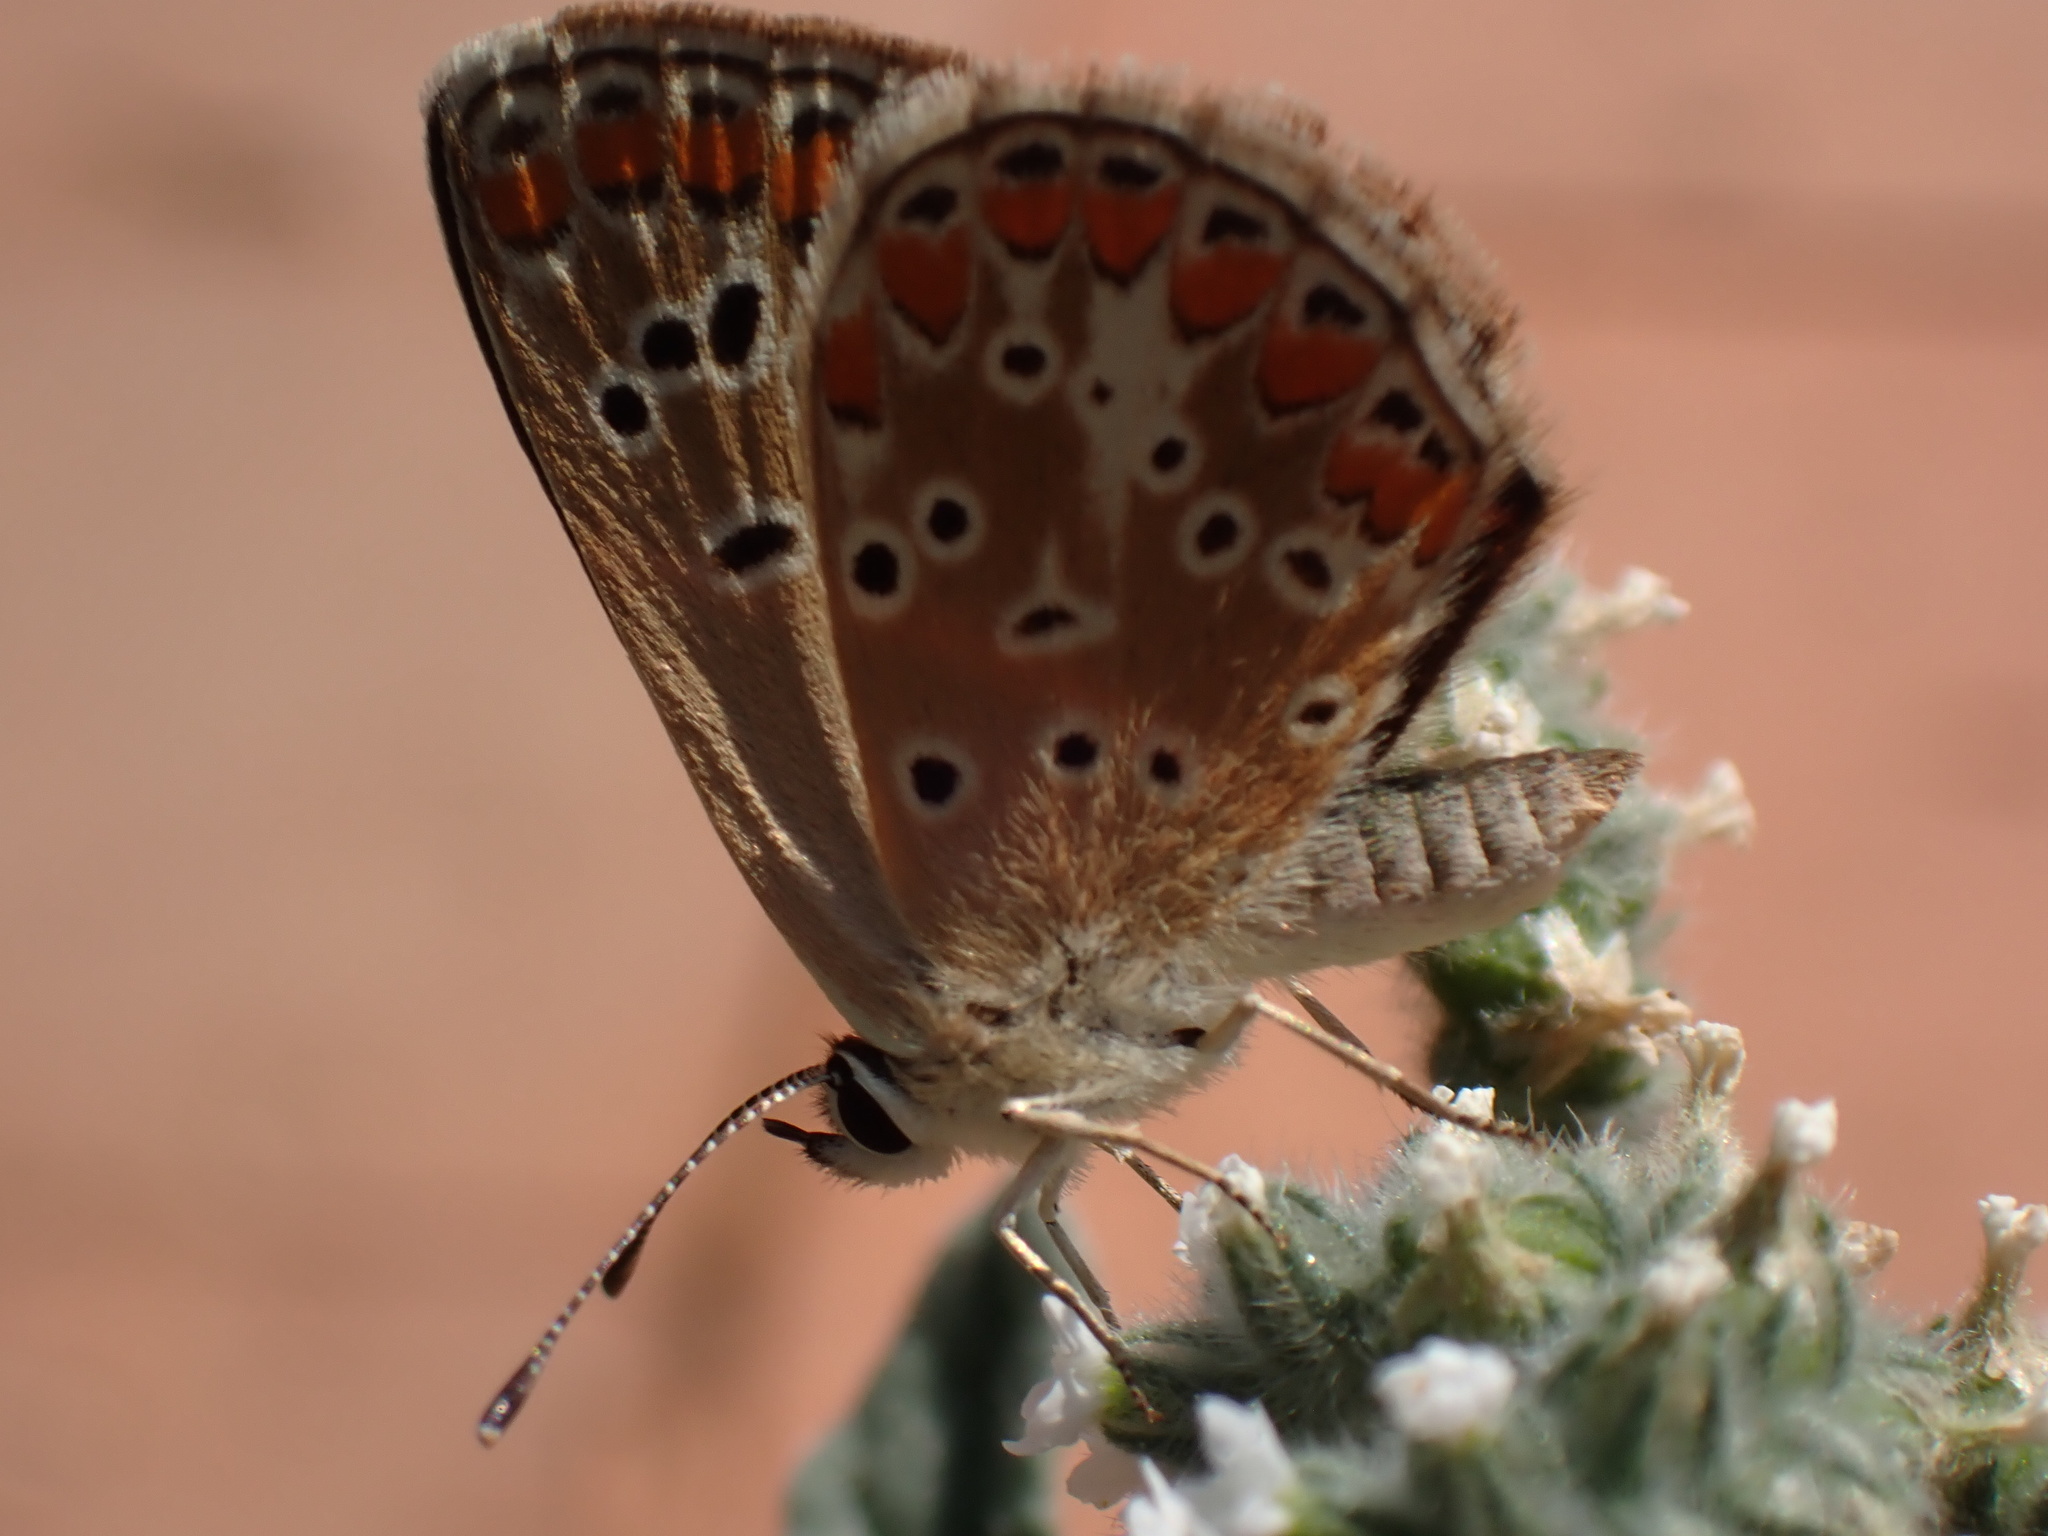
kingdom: Animalia
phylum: Arthropoda
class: Insecta
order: Lepidoptera
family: Lycaenidae
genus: Aricia
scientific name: Aricia agestis
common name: Brown argus
